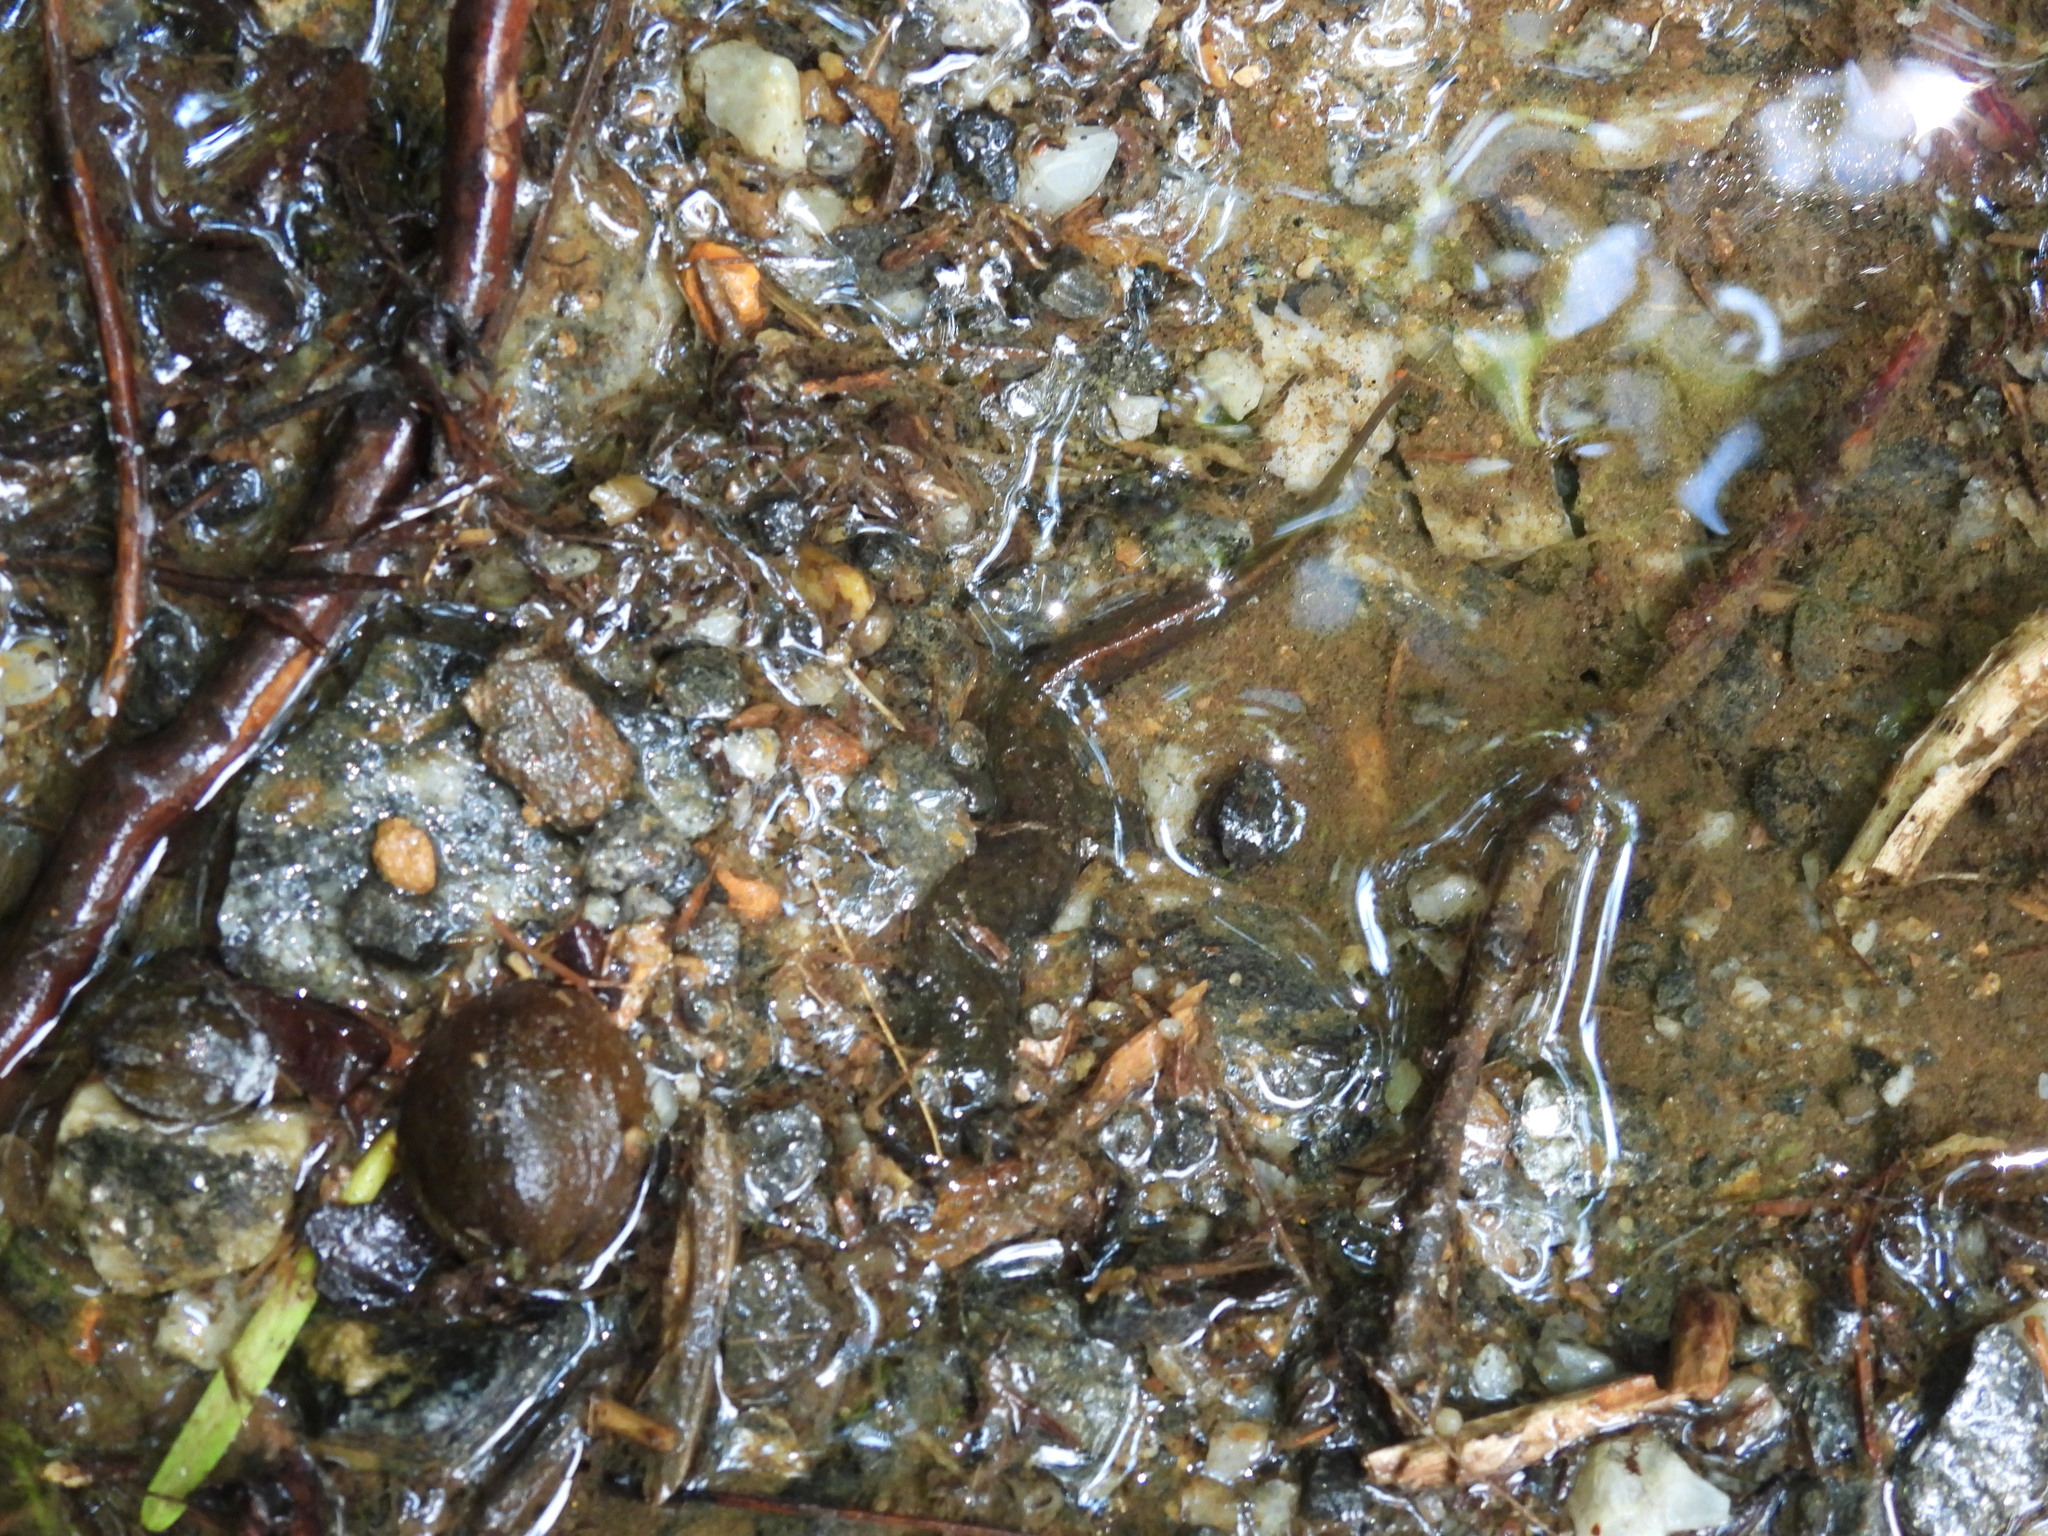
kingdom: Animalia
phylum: Chordata
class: Amphibia
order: Caudata
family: Plethodontidae
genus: Desmognathus
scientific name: Desmognathus conanti
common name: Spotted dusky salamander
